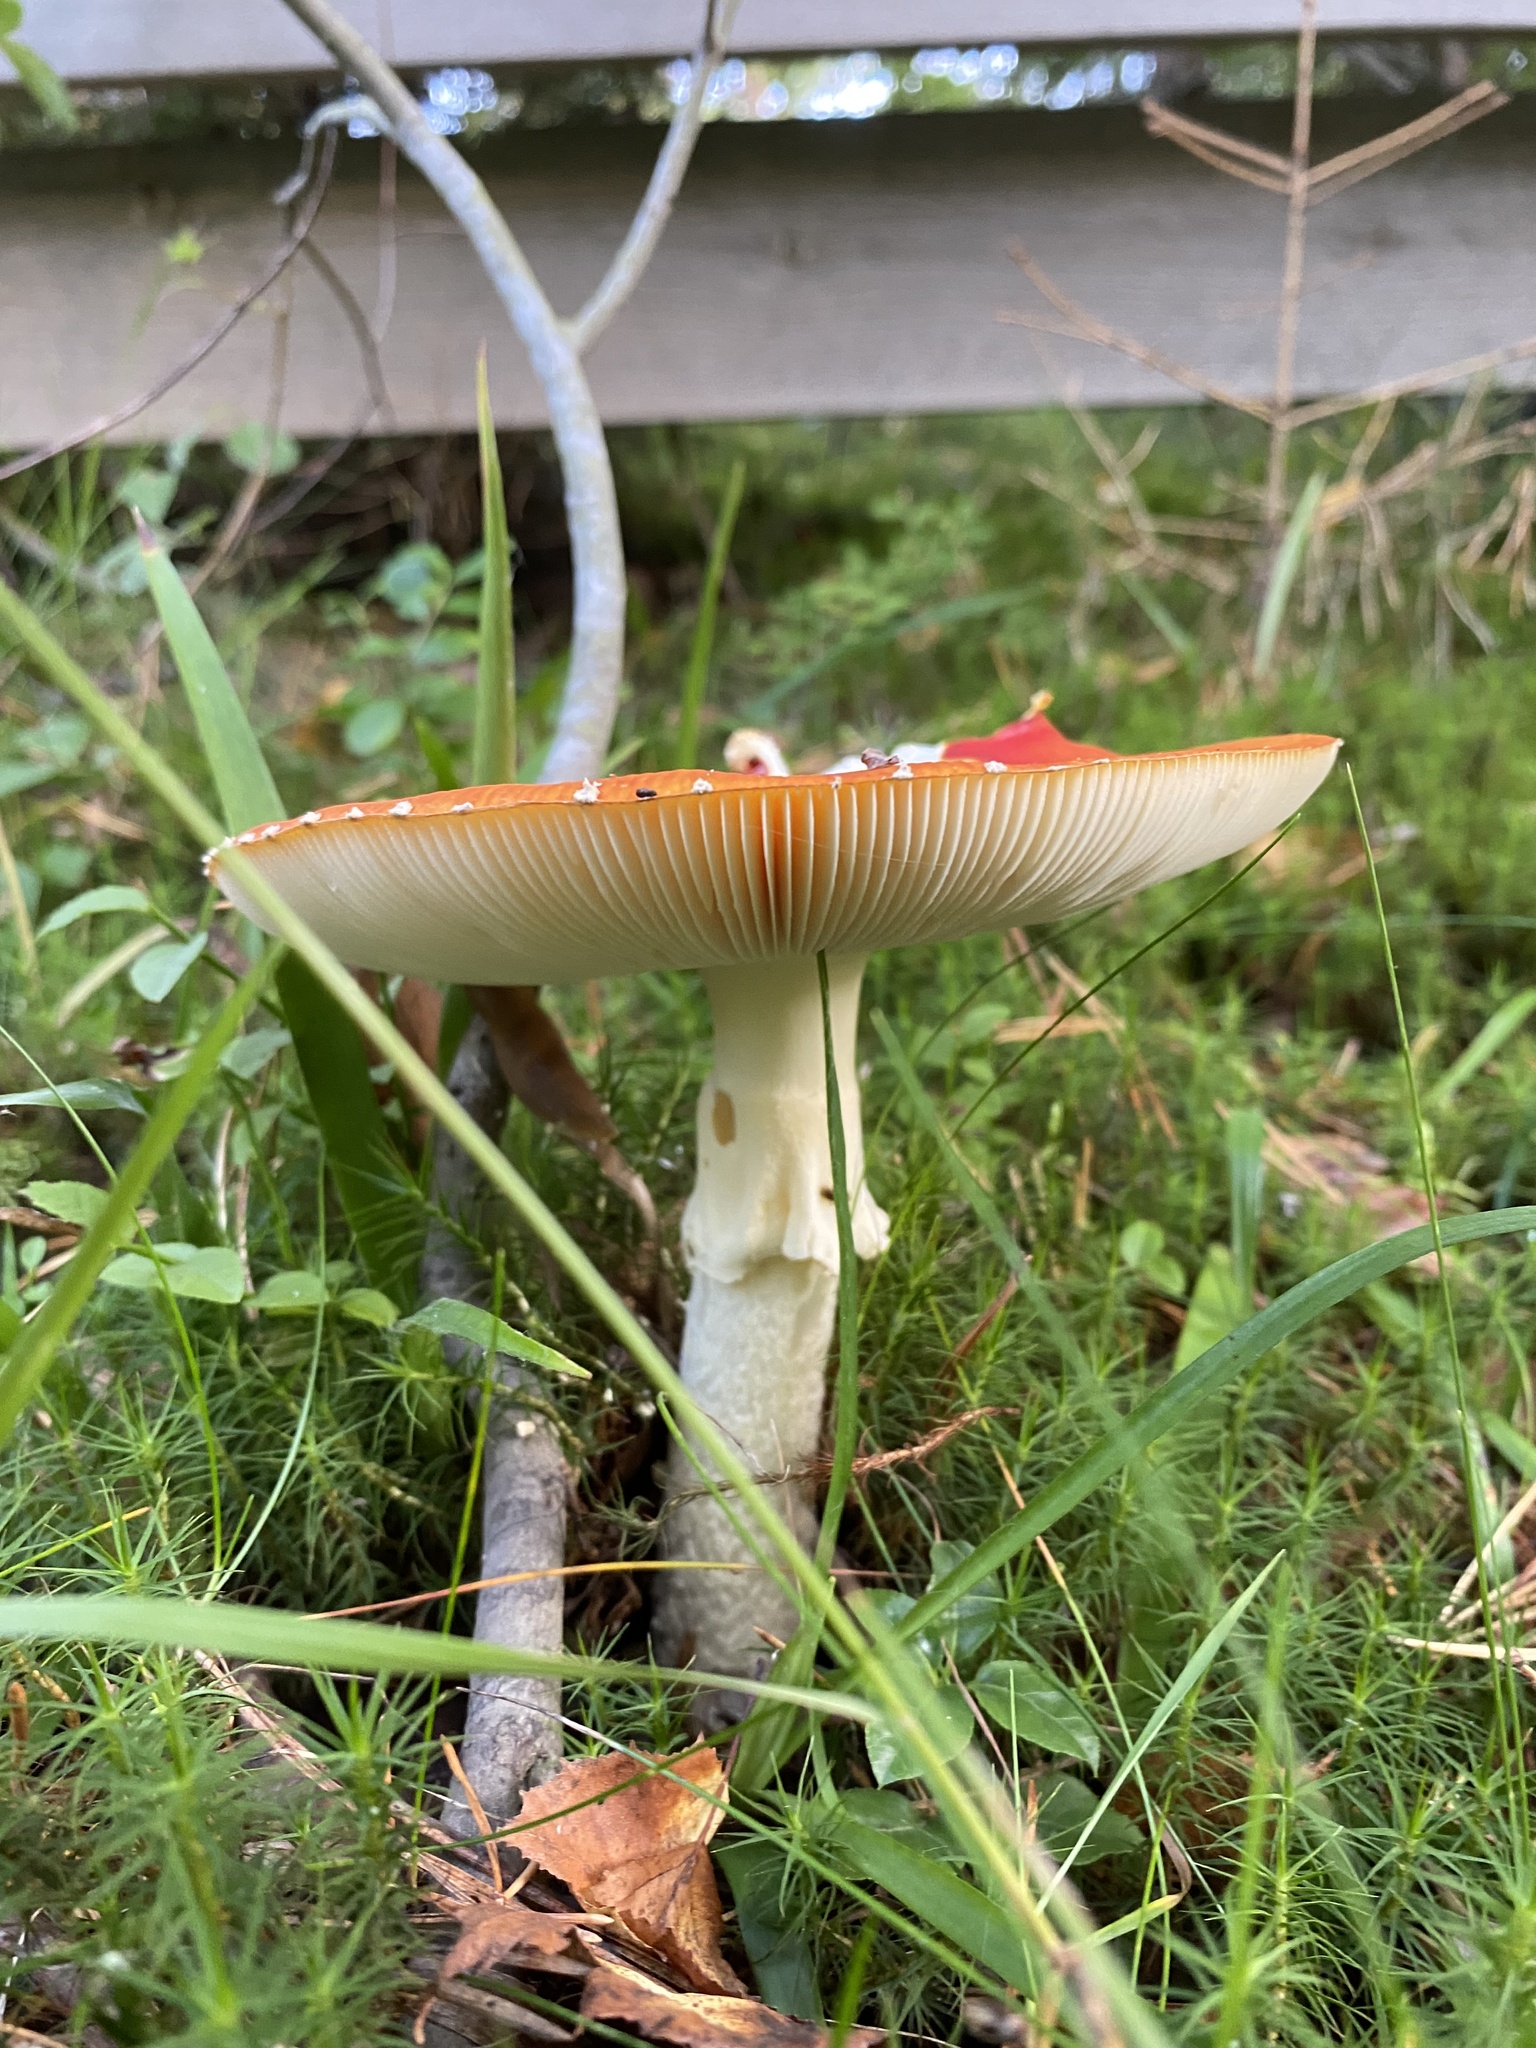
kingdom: Fungi
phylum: Basidiomycota
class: Agaricomycetes
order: Agaricales
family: Amanitaceae
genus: Amanita
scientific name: Amanita muscaria
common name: Fly agaric
